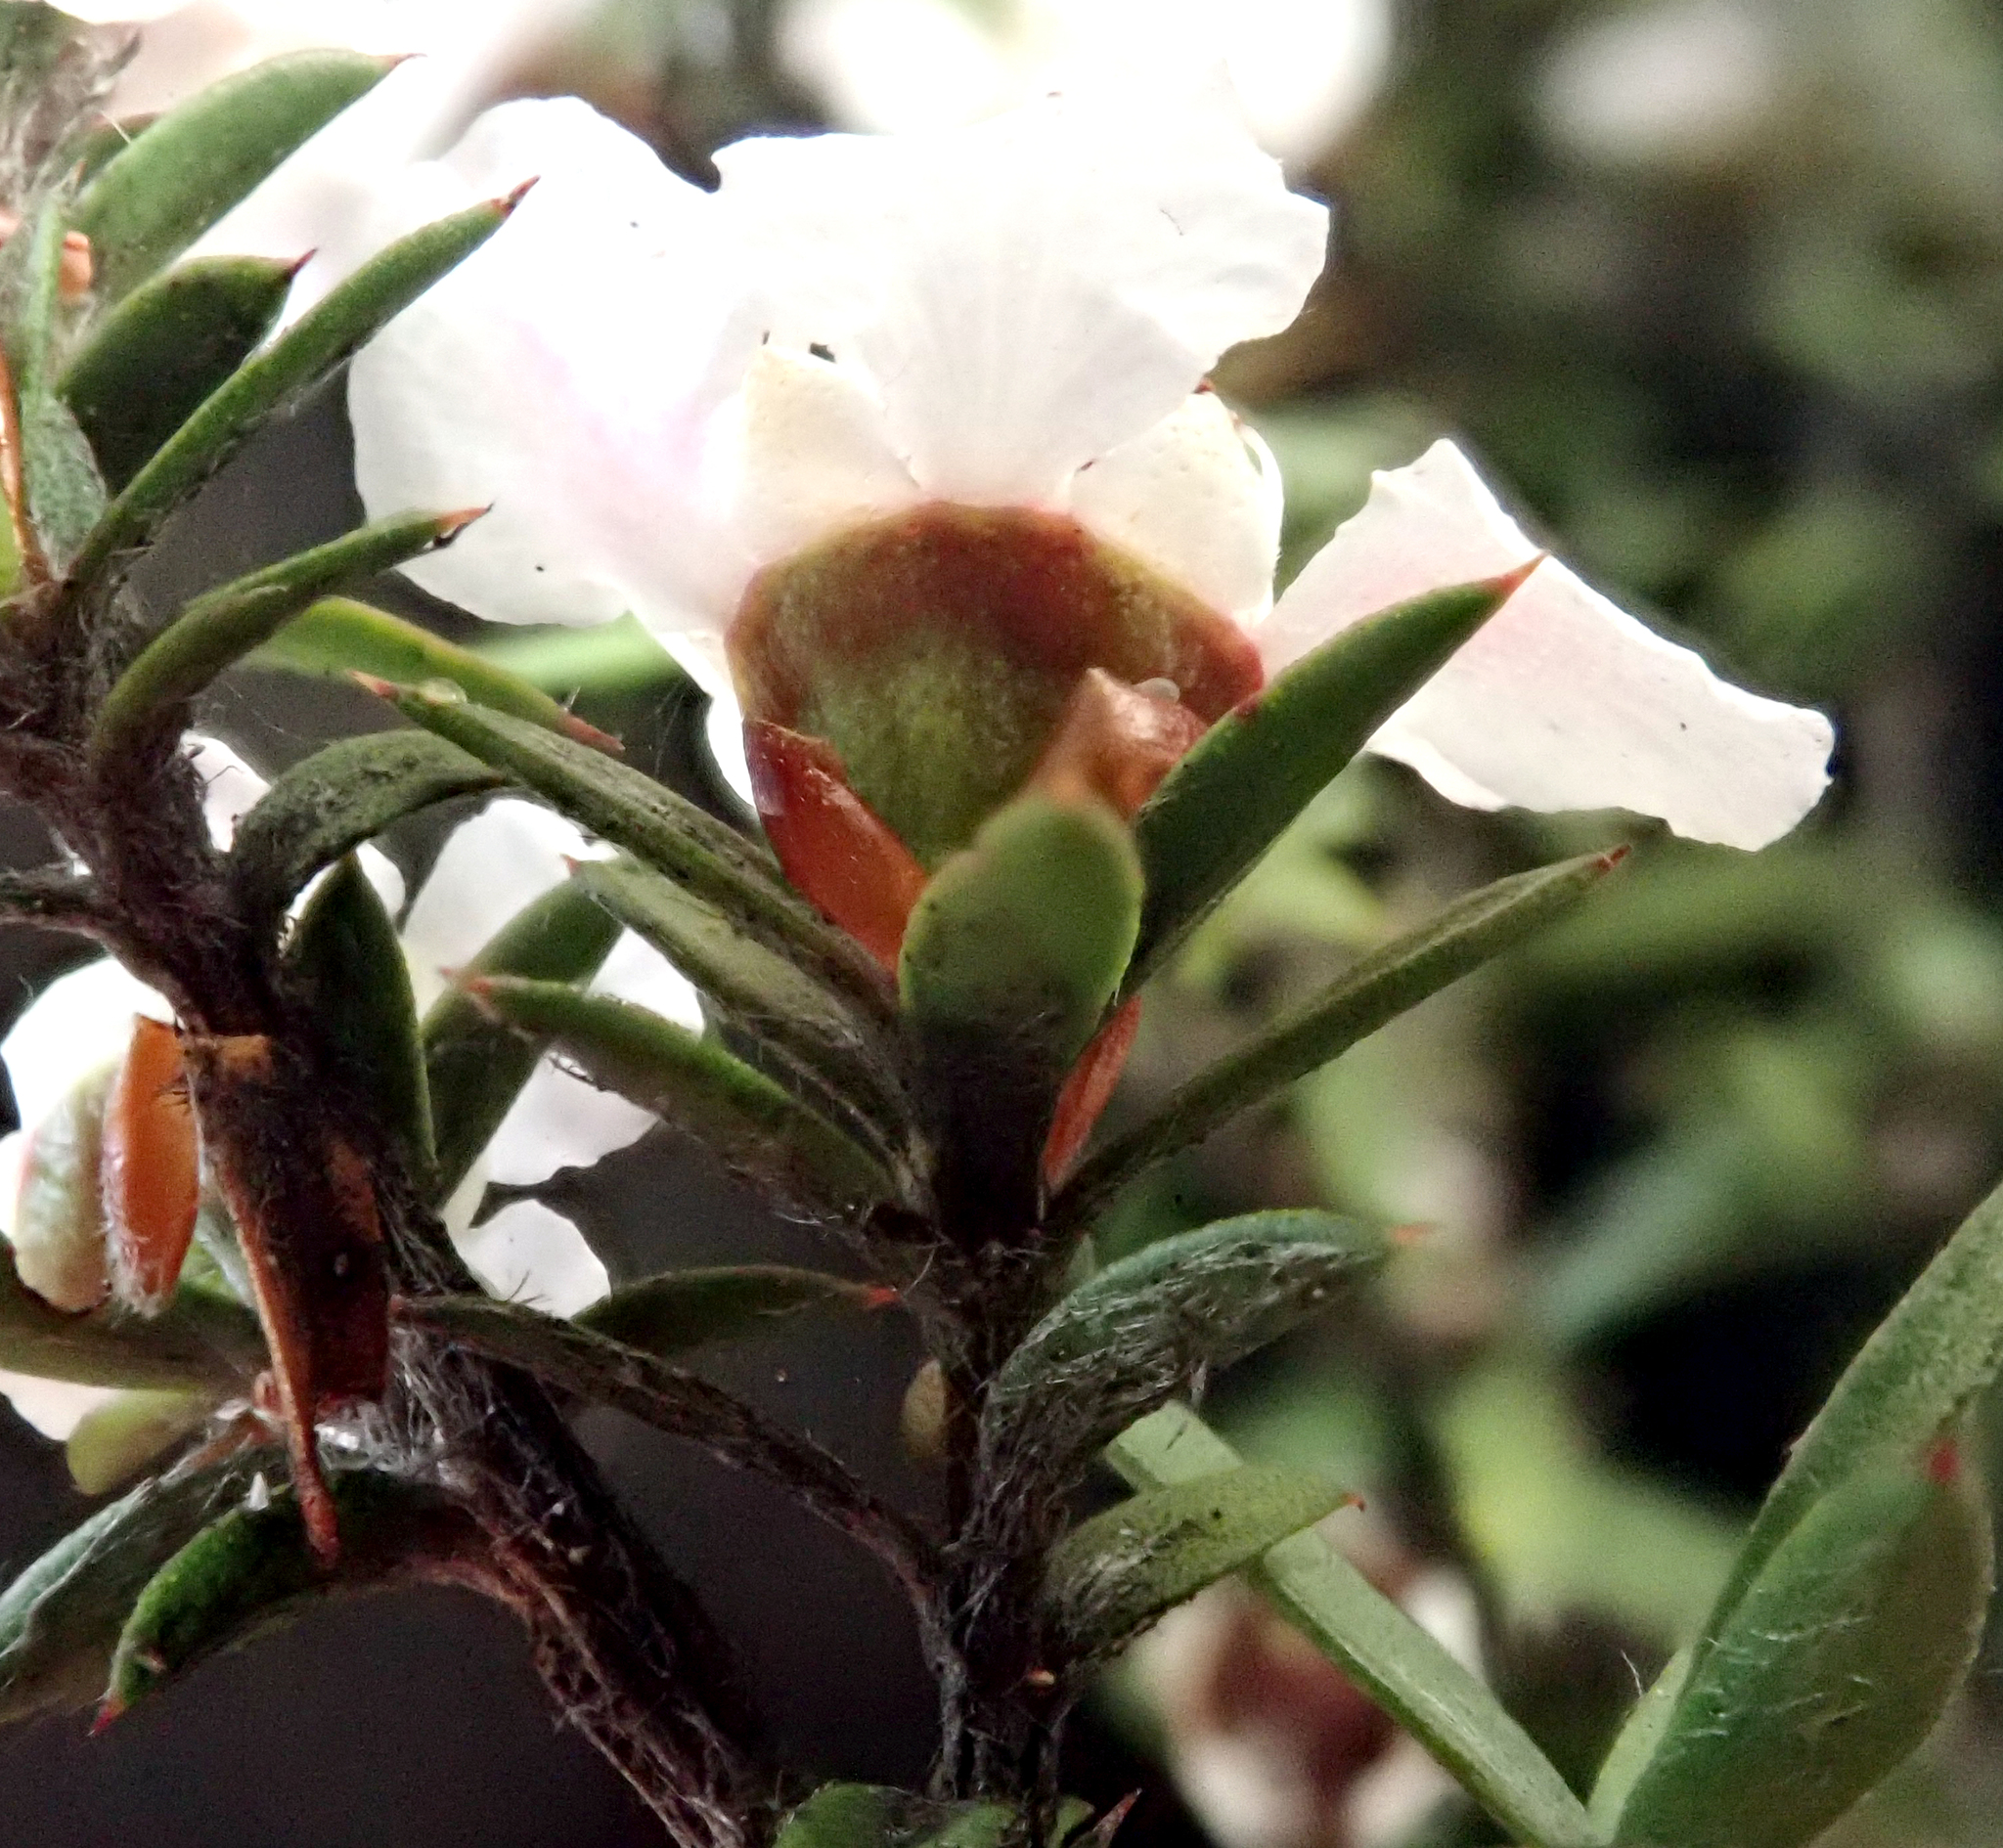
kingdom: Plantae
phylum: Tracheophyta
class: Magnoliopsida
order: Myrtales
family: Myrtaceae
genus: Leptospermum
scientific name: Leptospermum scoparium
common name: Broom tea-tree
